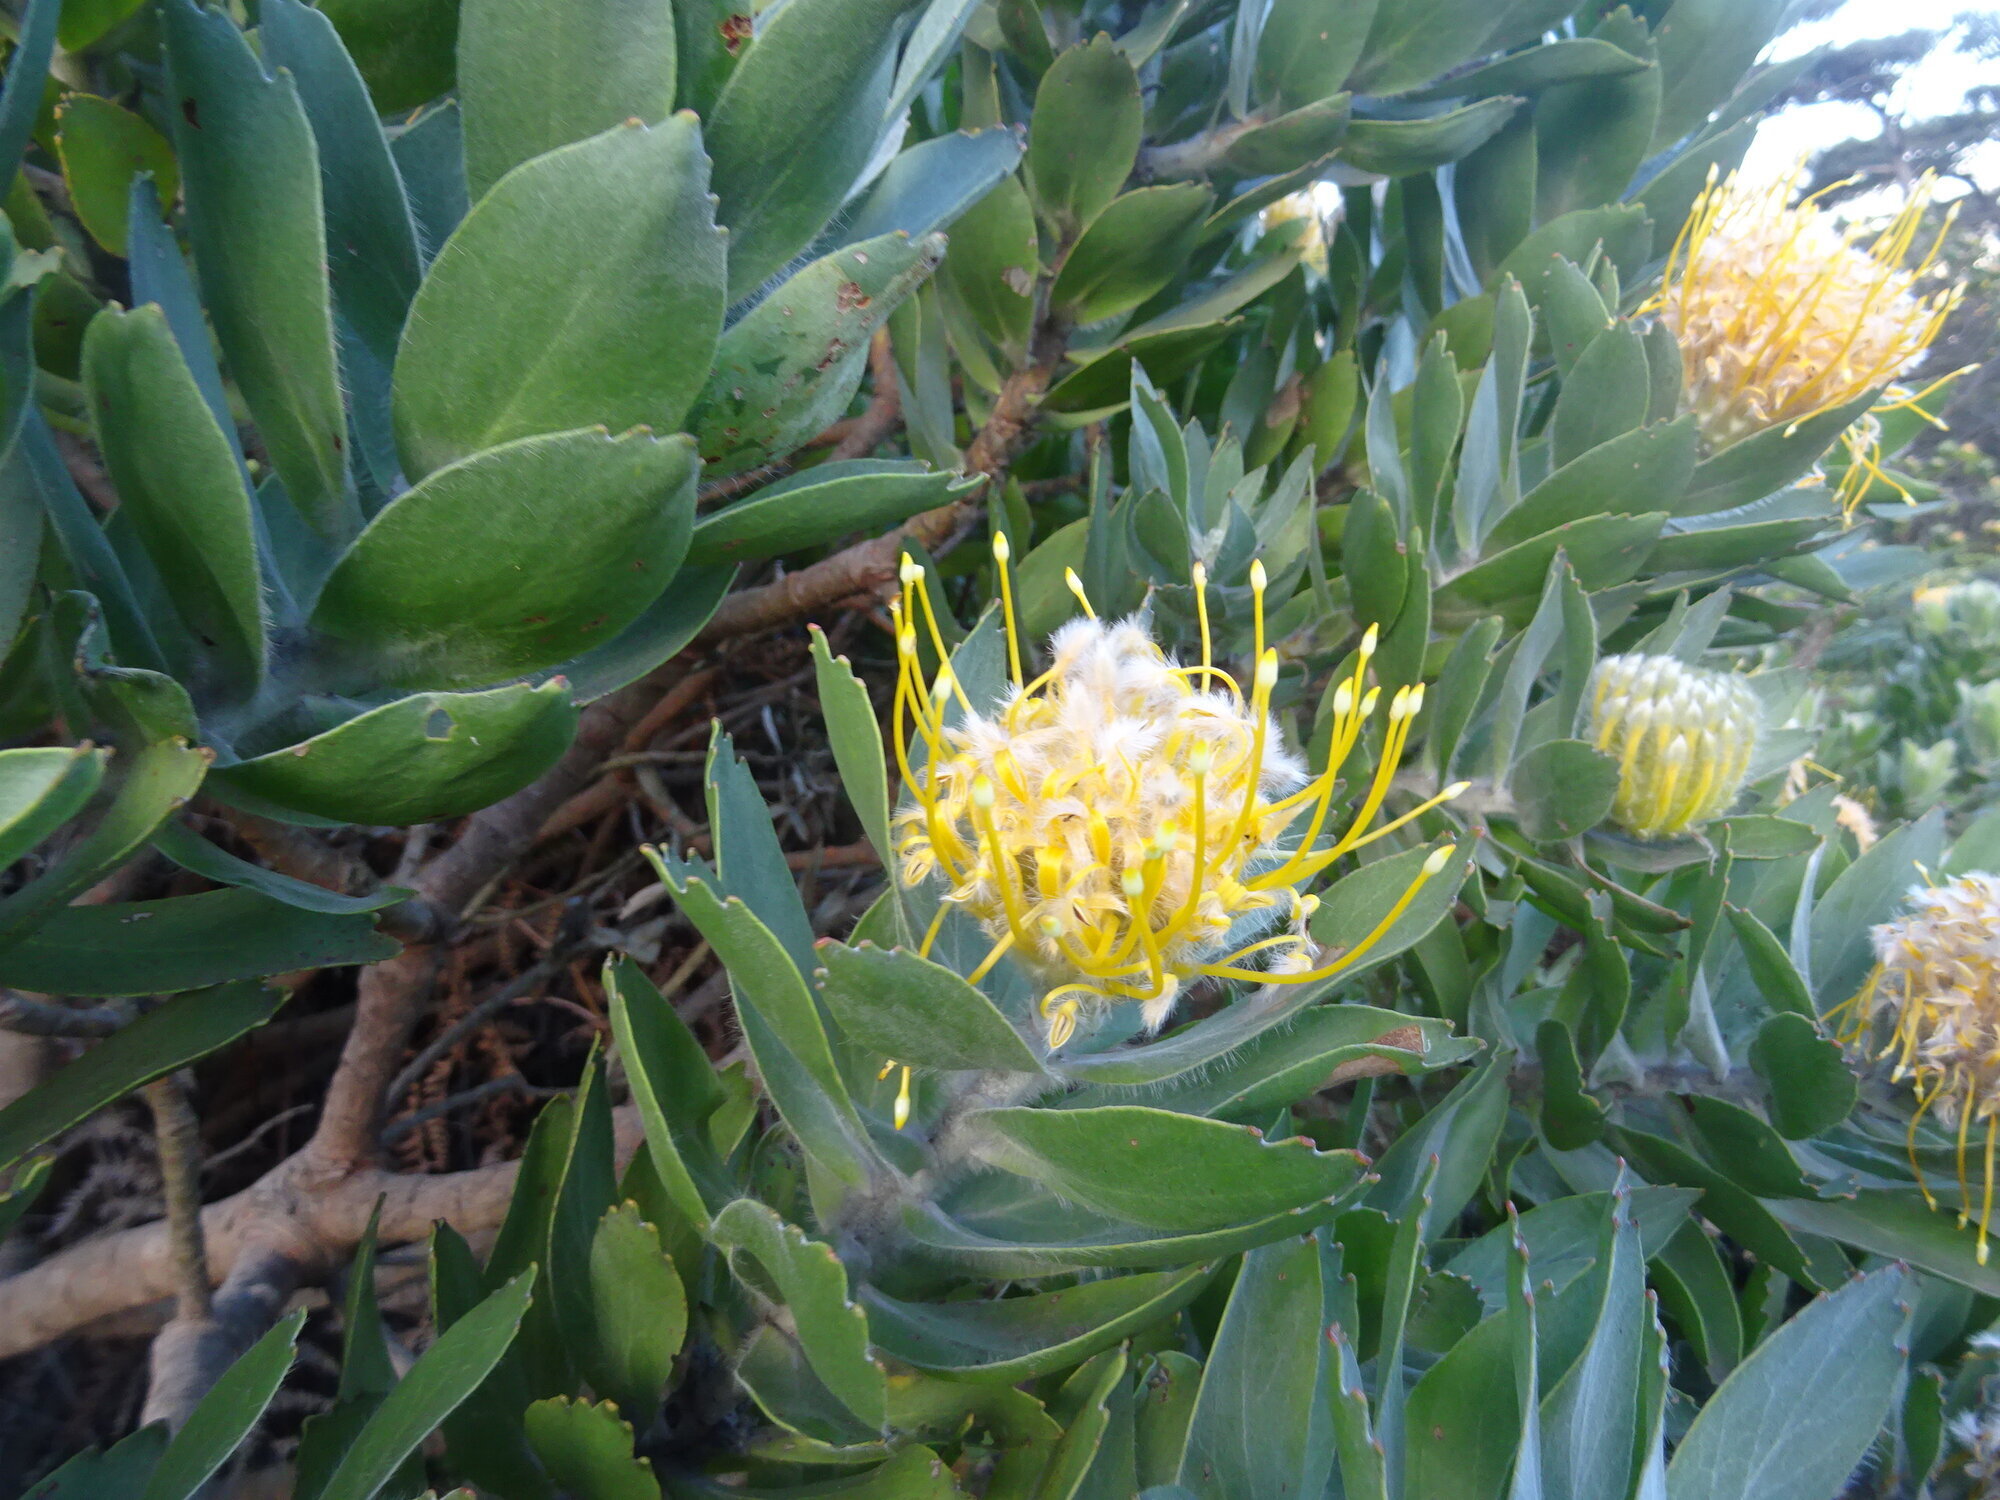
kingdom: Plantae
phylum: Tracheophyta
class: Magnoliopsida
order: Proteales
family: Proteaceae
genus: Leucospermum
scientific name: Leucospermum conocarpodendron
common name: Tree pincushion
